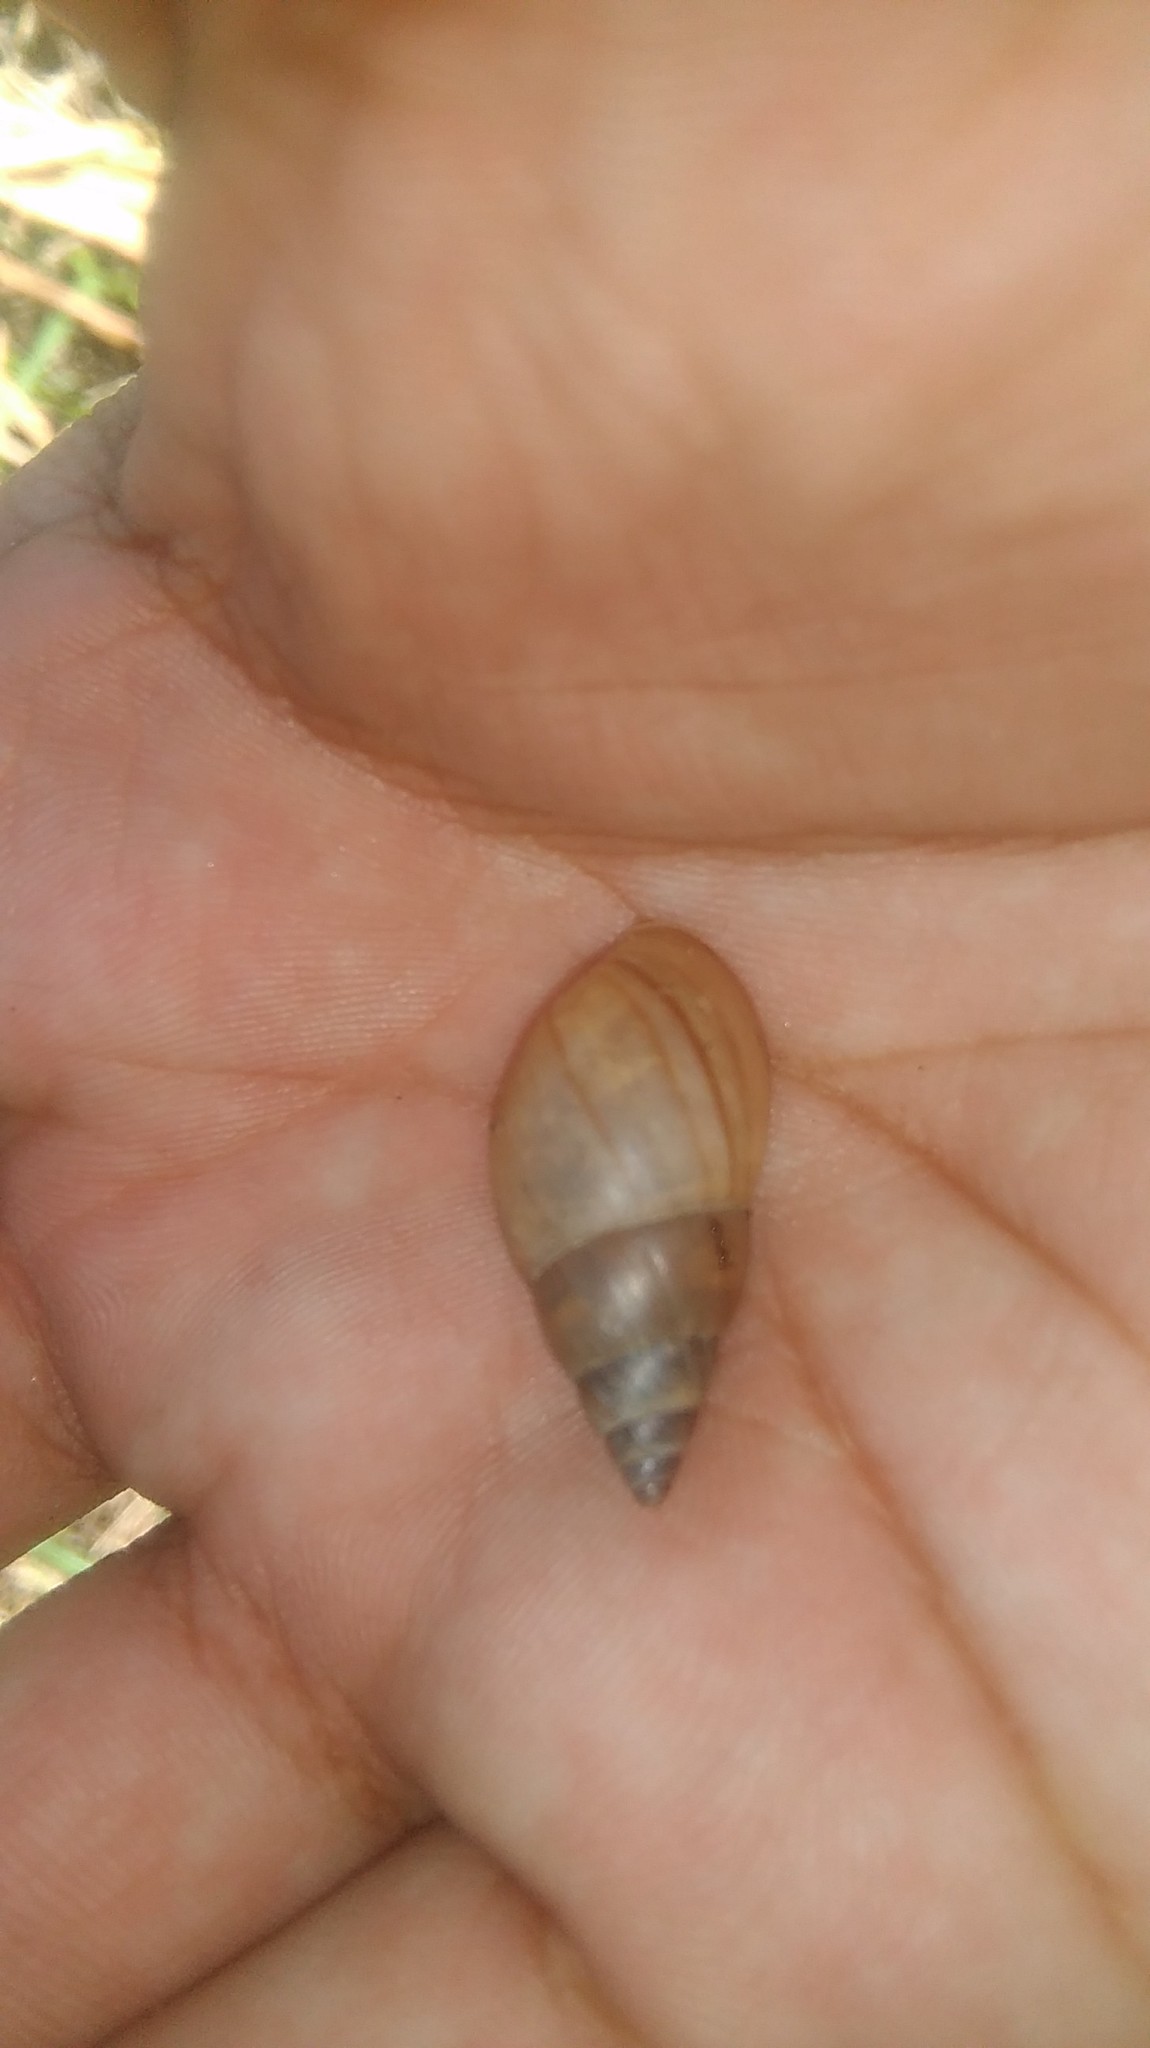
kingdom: Animalia
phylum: Mollusca
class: Gastropoda
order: Stylommatophora
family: Bulimulidae
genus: Bulimulus
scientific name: Bulimulus bonariensis
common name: Snail
